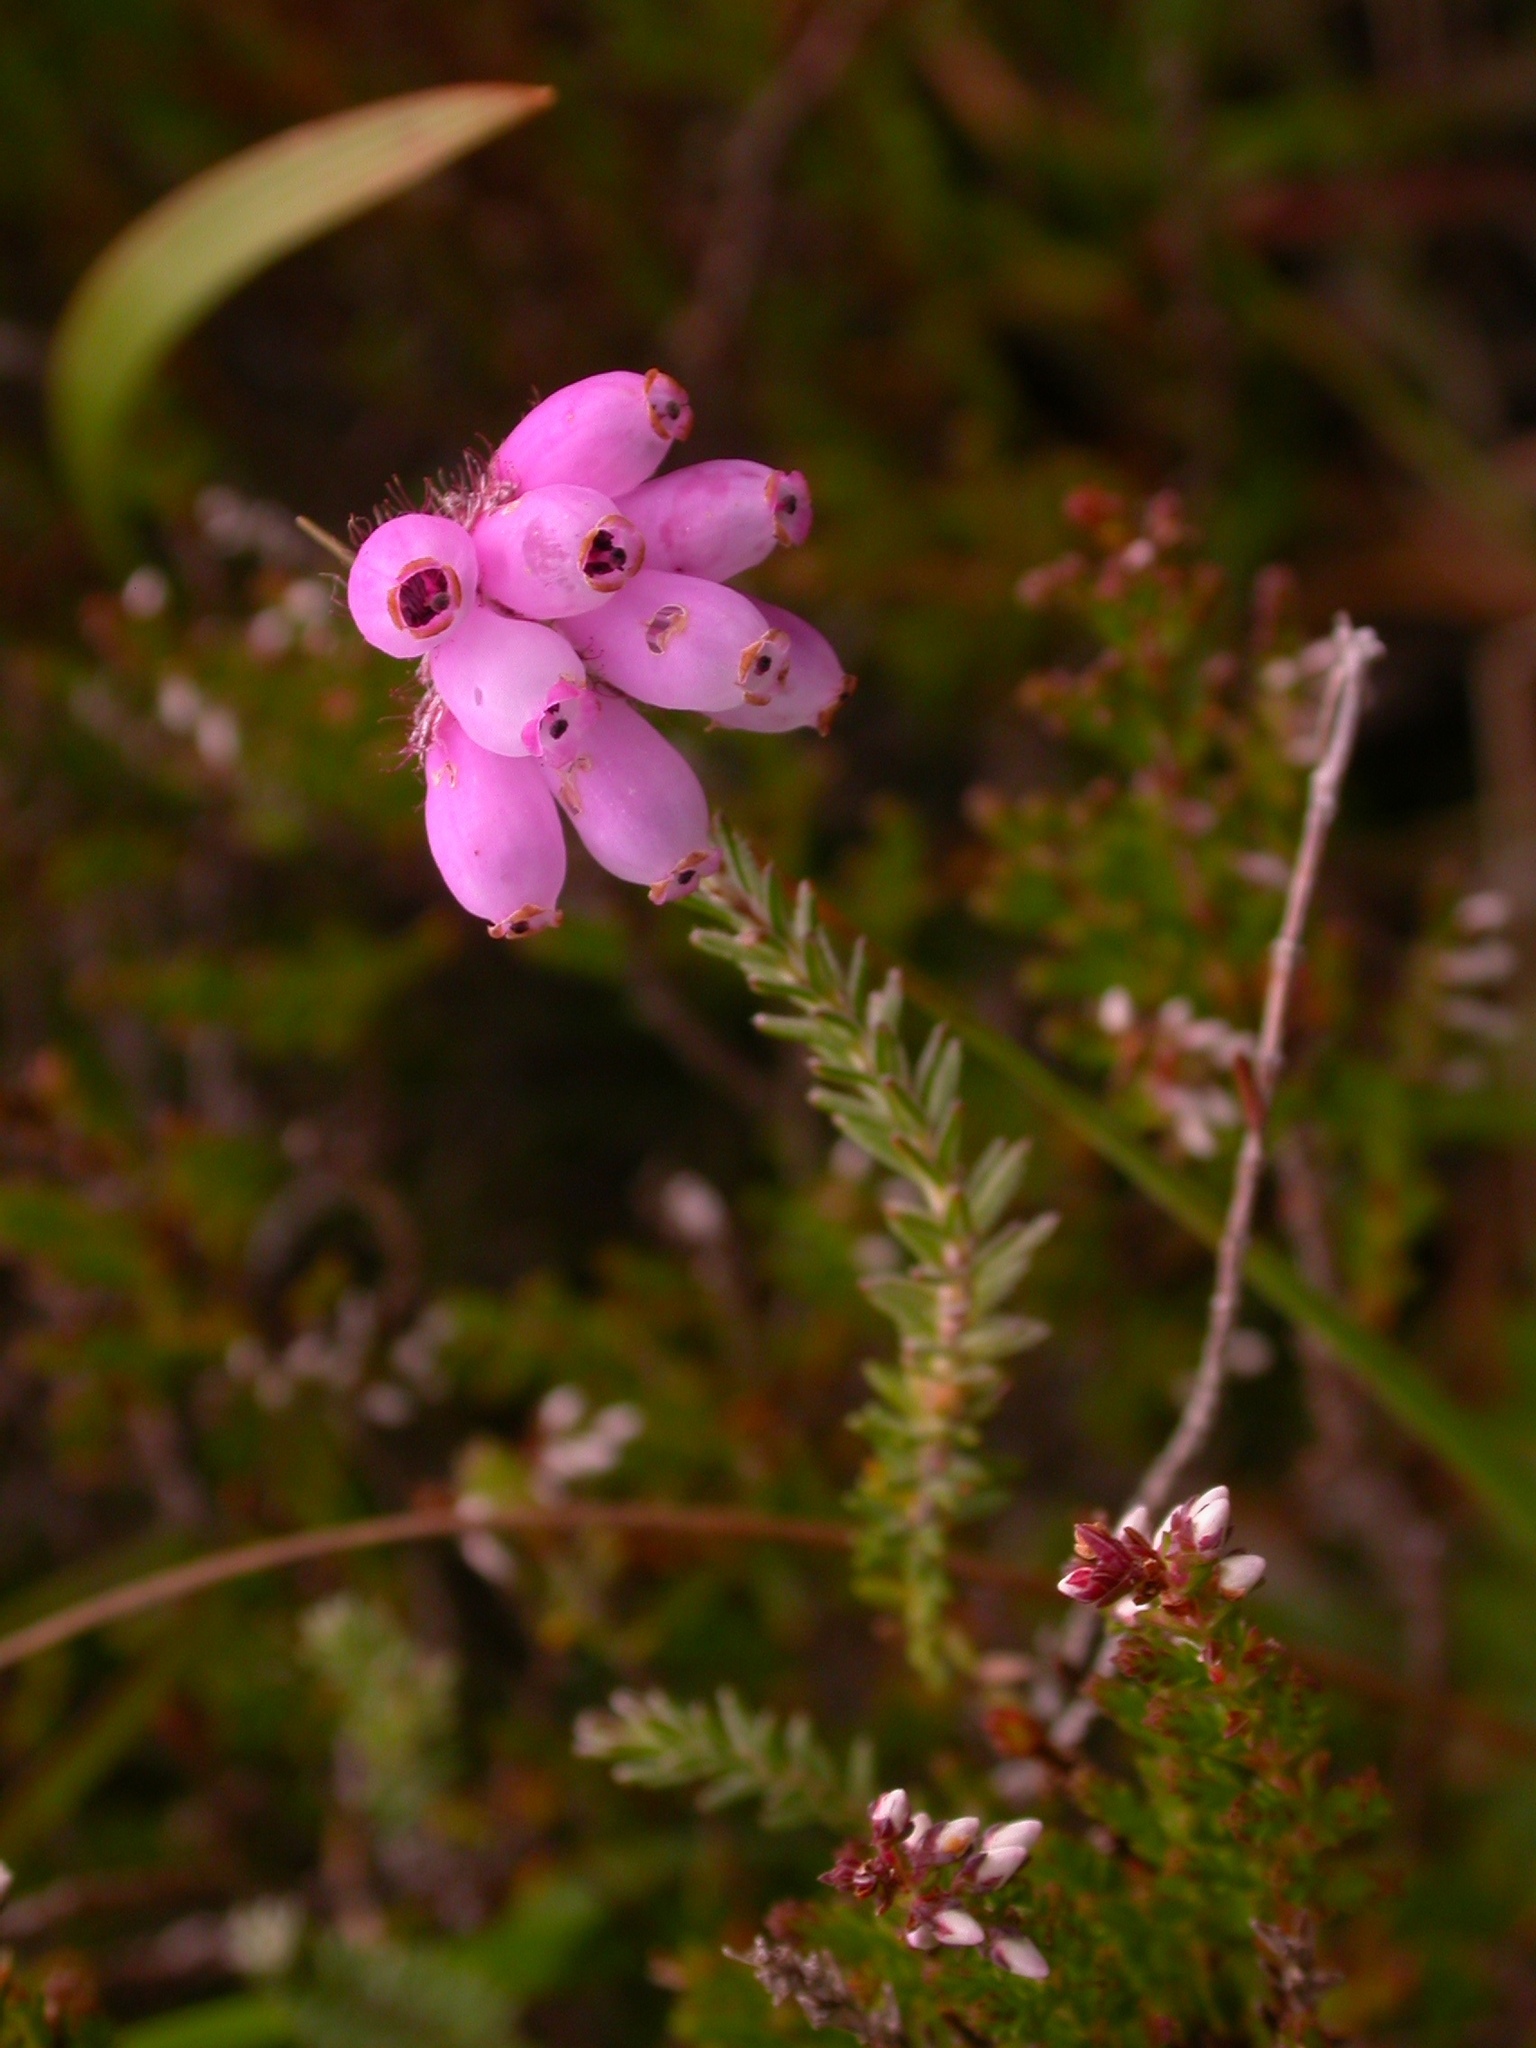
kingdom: Plantae
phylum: Tracheophyta
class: Magnoliopsida
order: Ericales
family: Ericaceae
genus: Erica
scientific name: Erica tetralix
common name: Cross-leaved heath
